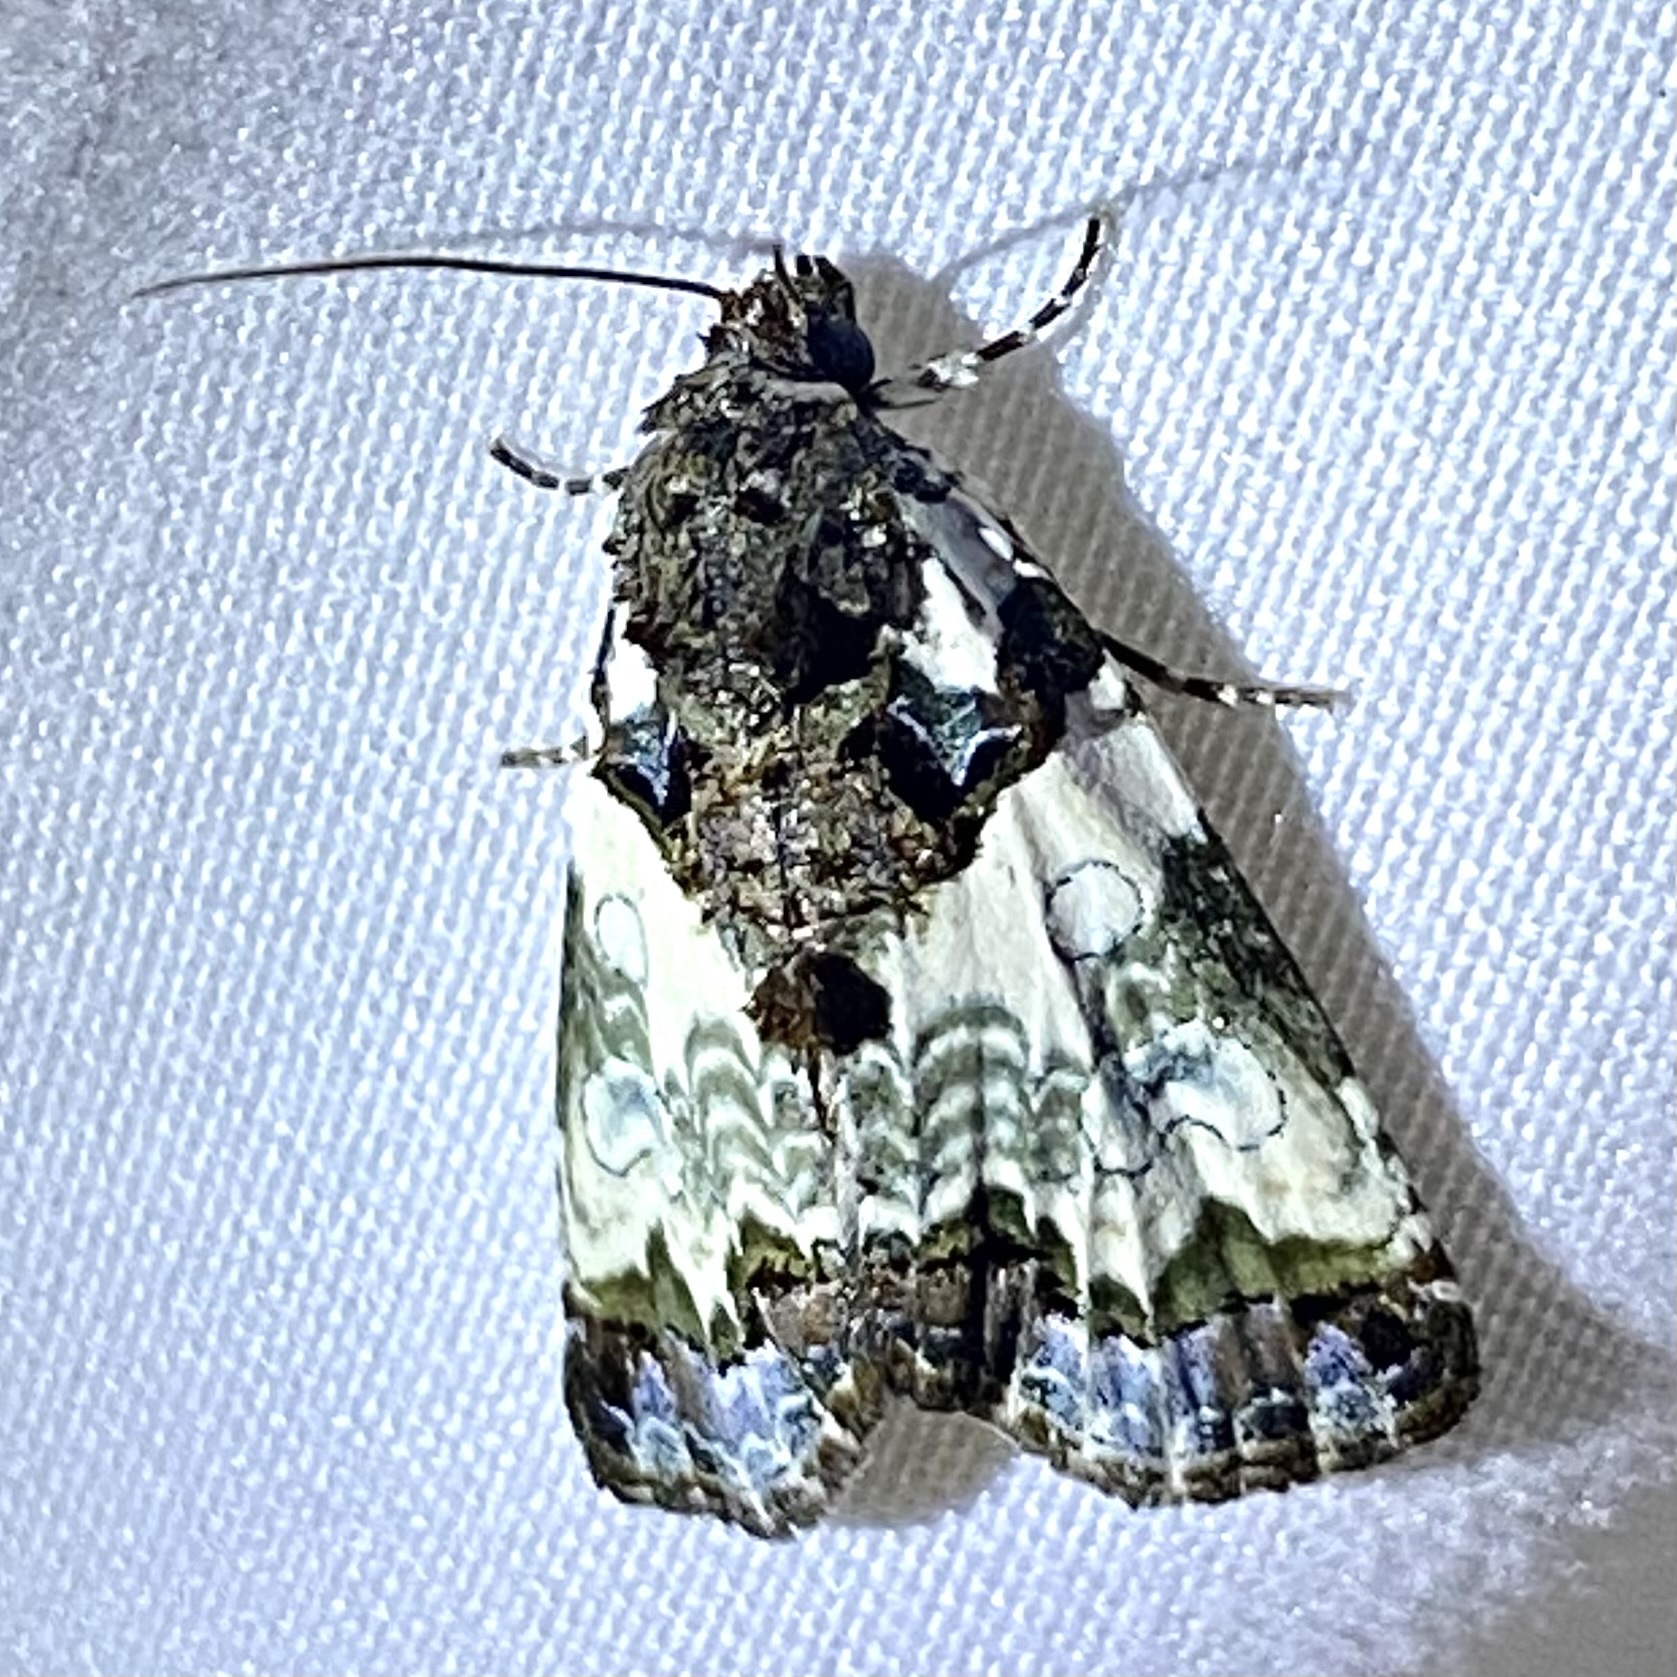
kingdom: Animalia
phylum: Arthropoda
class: Insecta
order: Lepidoptera
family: Noctuidae
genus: Cerma
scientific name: Cerma cerintha
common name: Tufted bird-dropping moth
